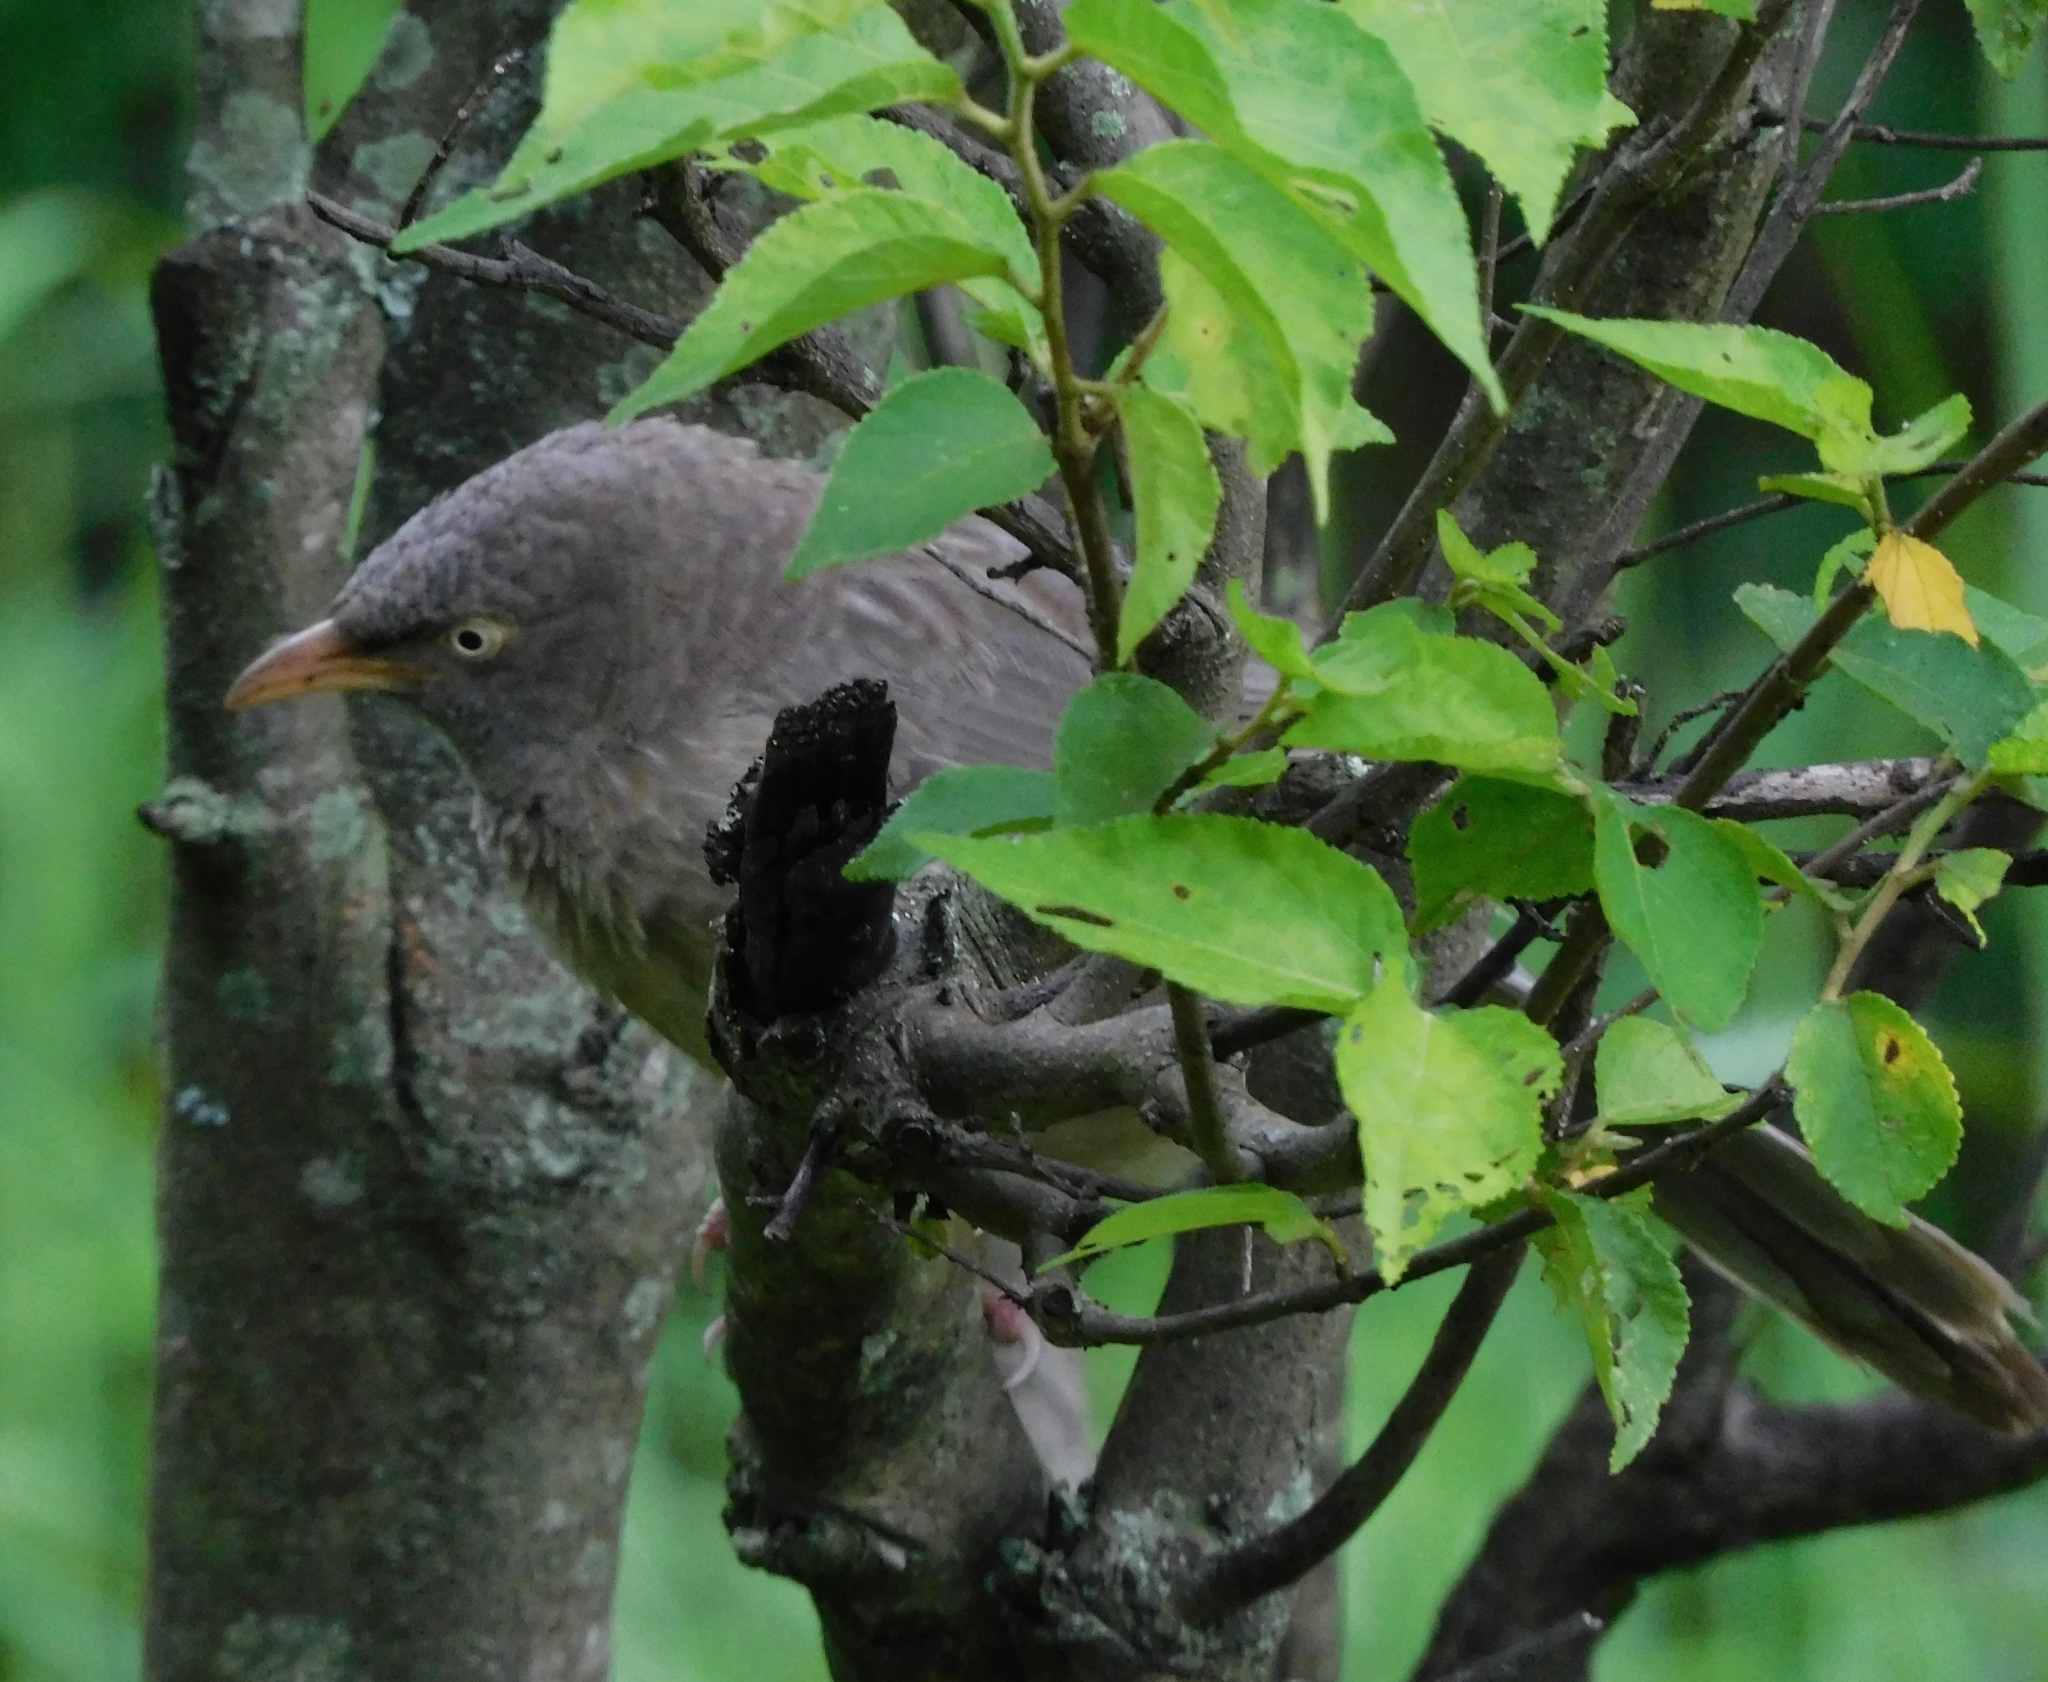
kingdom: Animalia
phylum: Chordata
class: Aves
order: Passeriformes
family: Leiothrichidae
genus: Turdoides
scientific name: Turdoides striata
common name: Jungle babbler
